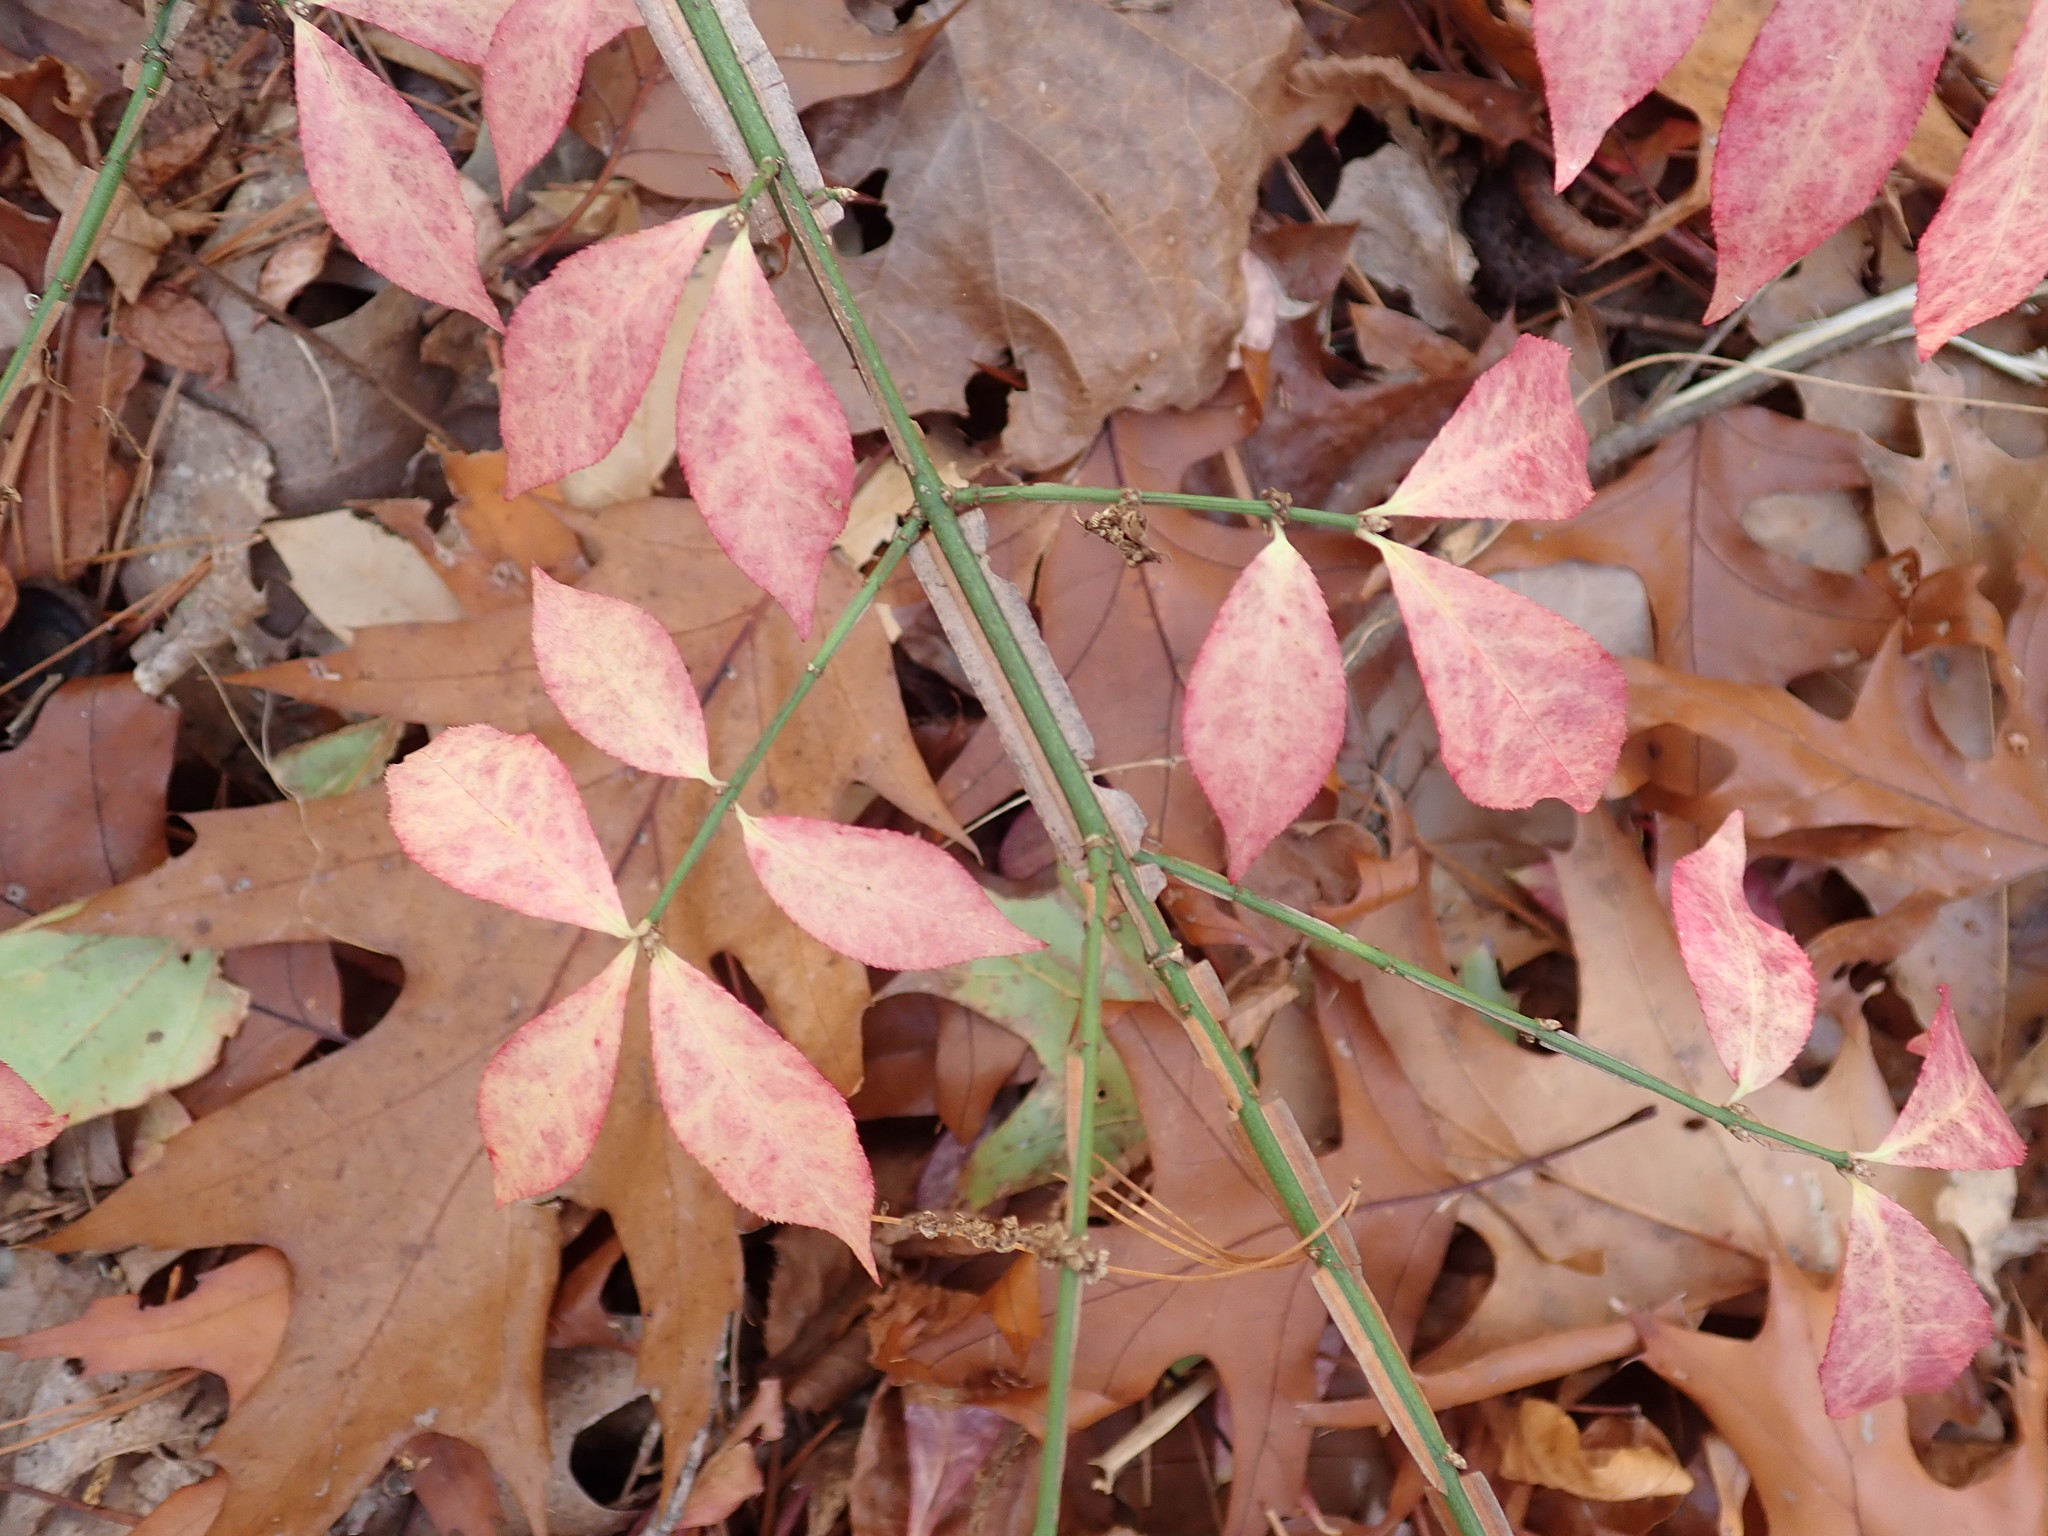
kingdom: Plantae
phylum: Tracheophyta
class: Magnoliopsida
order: Celastrales
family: Celastraceae
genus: Euonymus
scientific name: Euonymus alatus
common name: Winged euonymus
